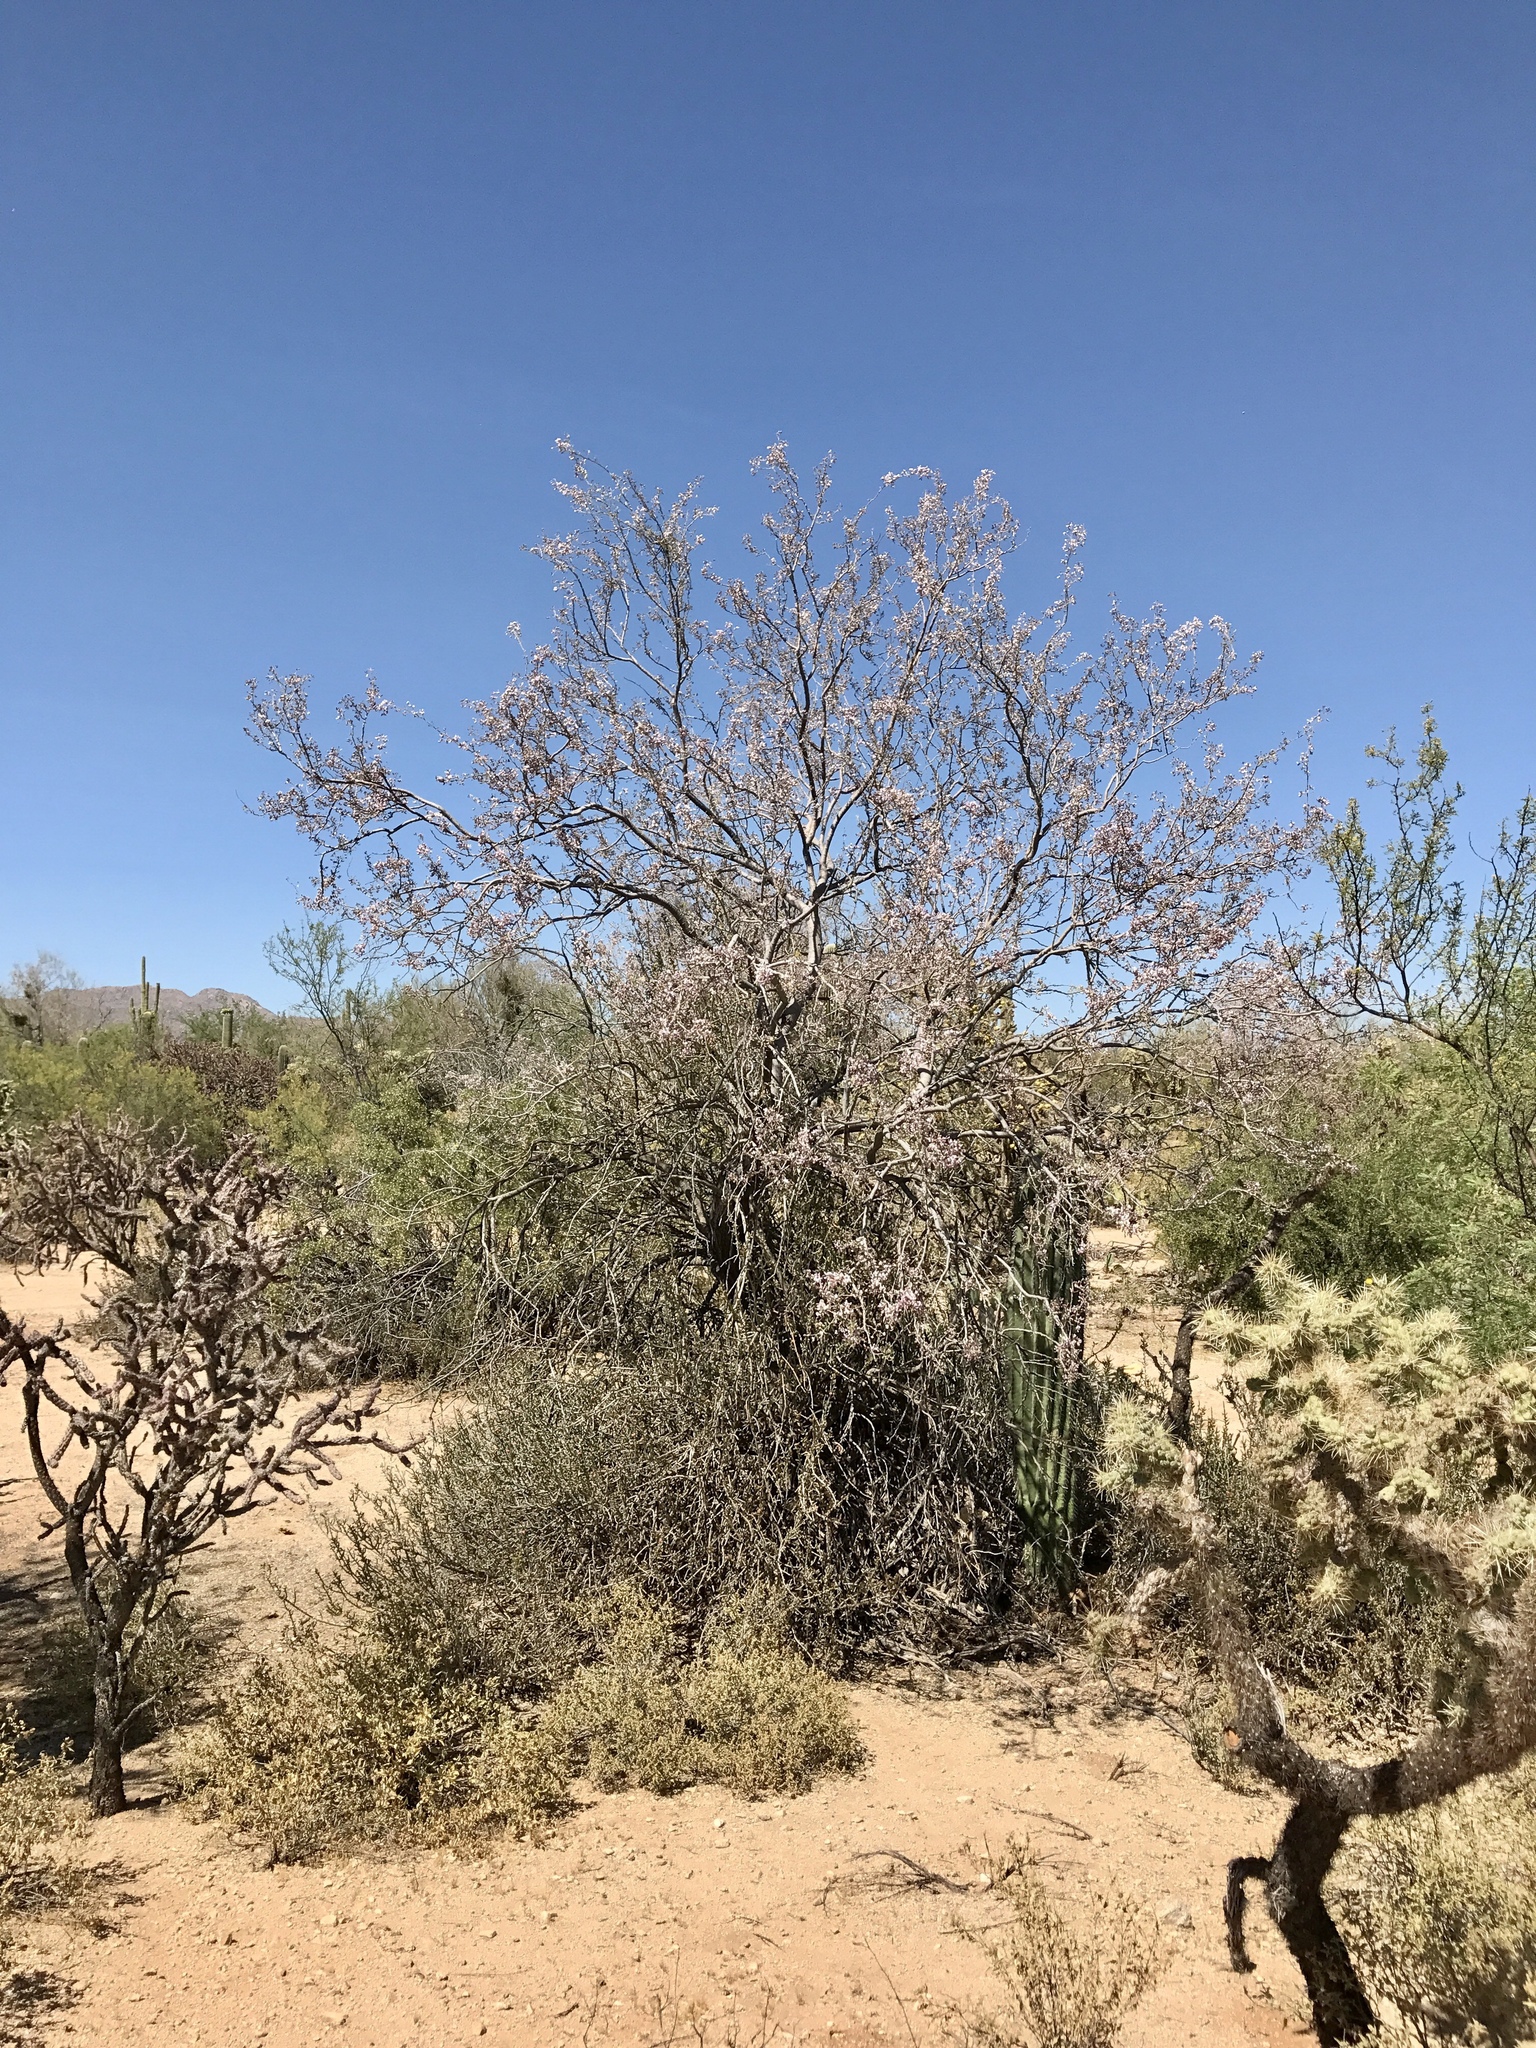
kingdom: Plantae
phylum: Tracheophyta
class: Magnoliopsida
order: Fabales
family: Fabaceae
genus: Olneya
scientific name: Olneya tesota
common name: Desert ironwood
